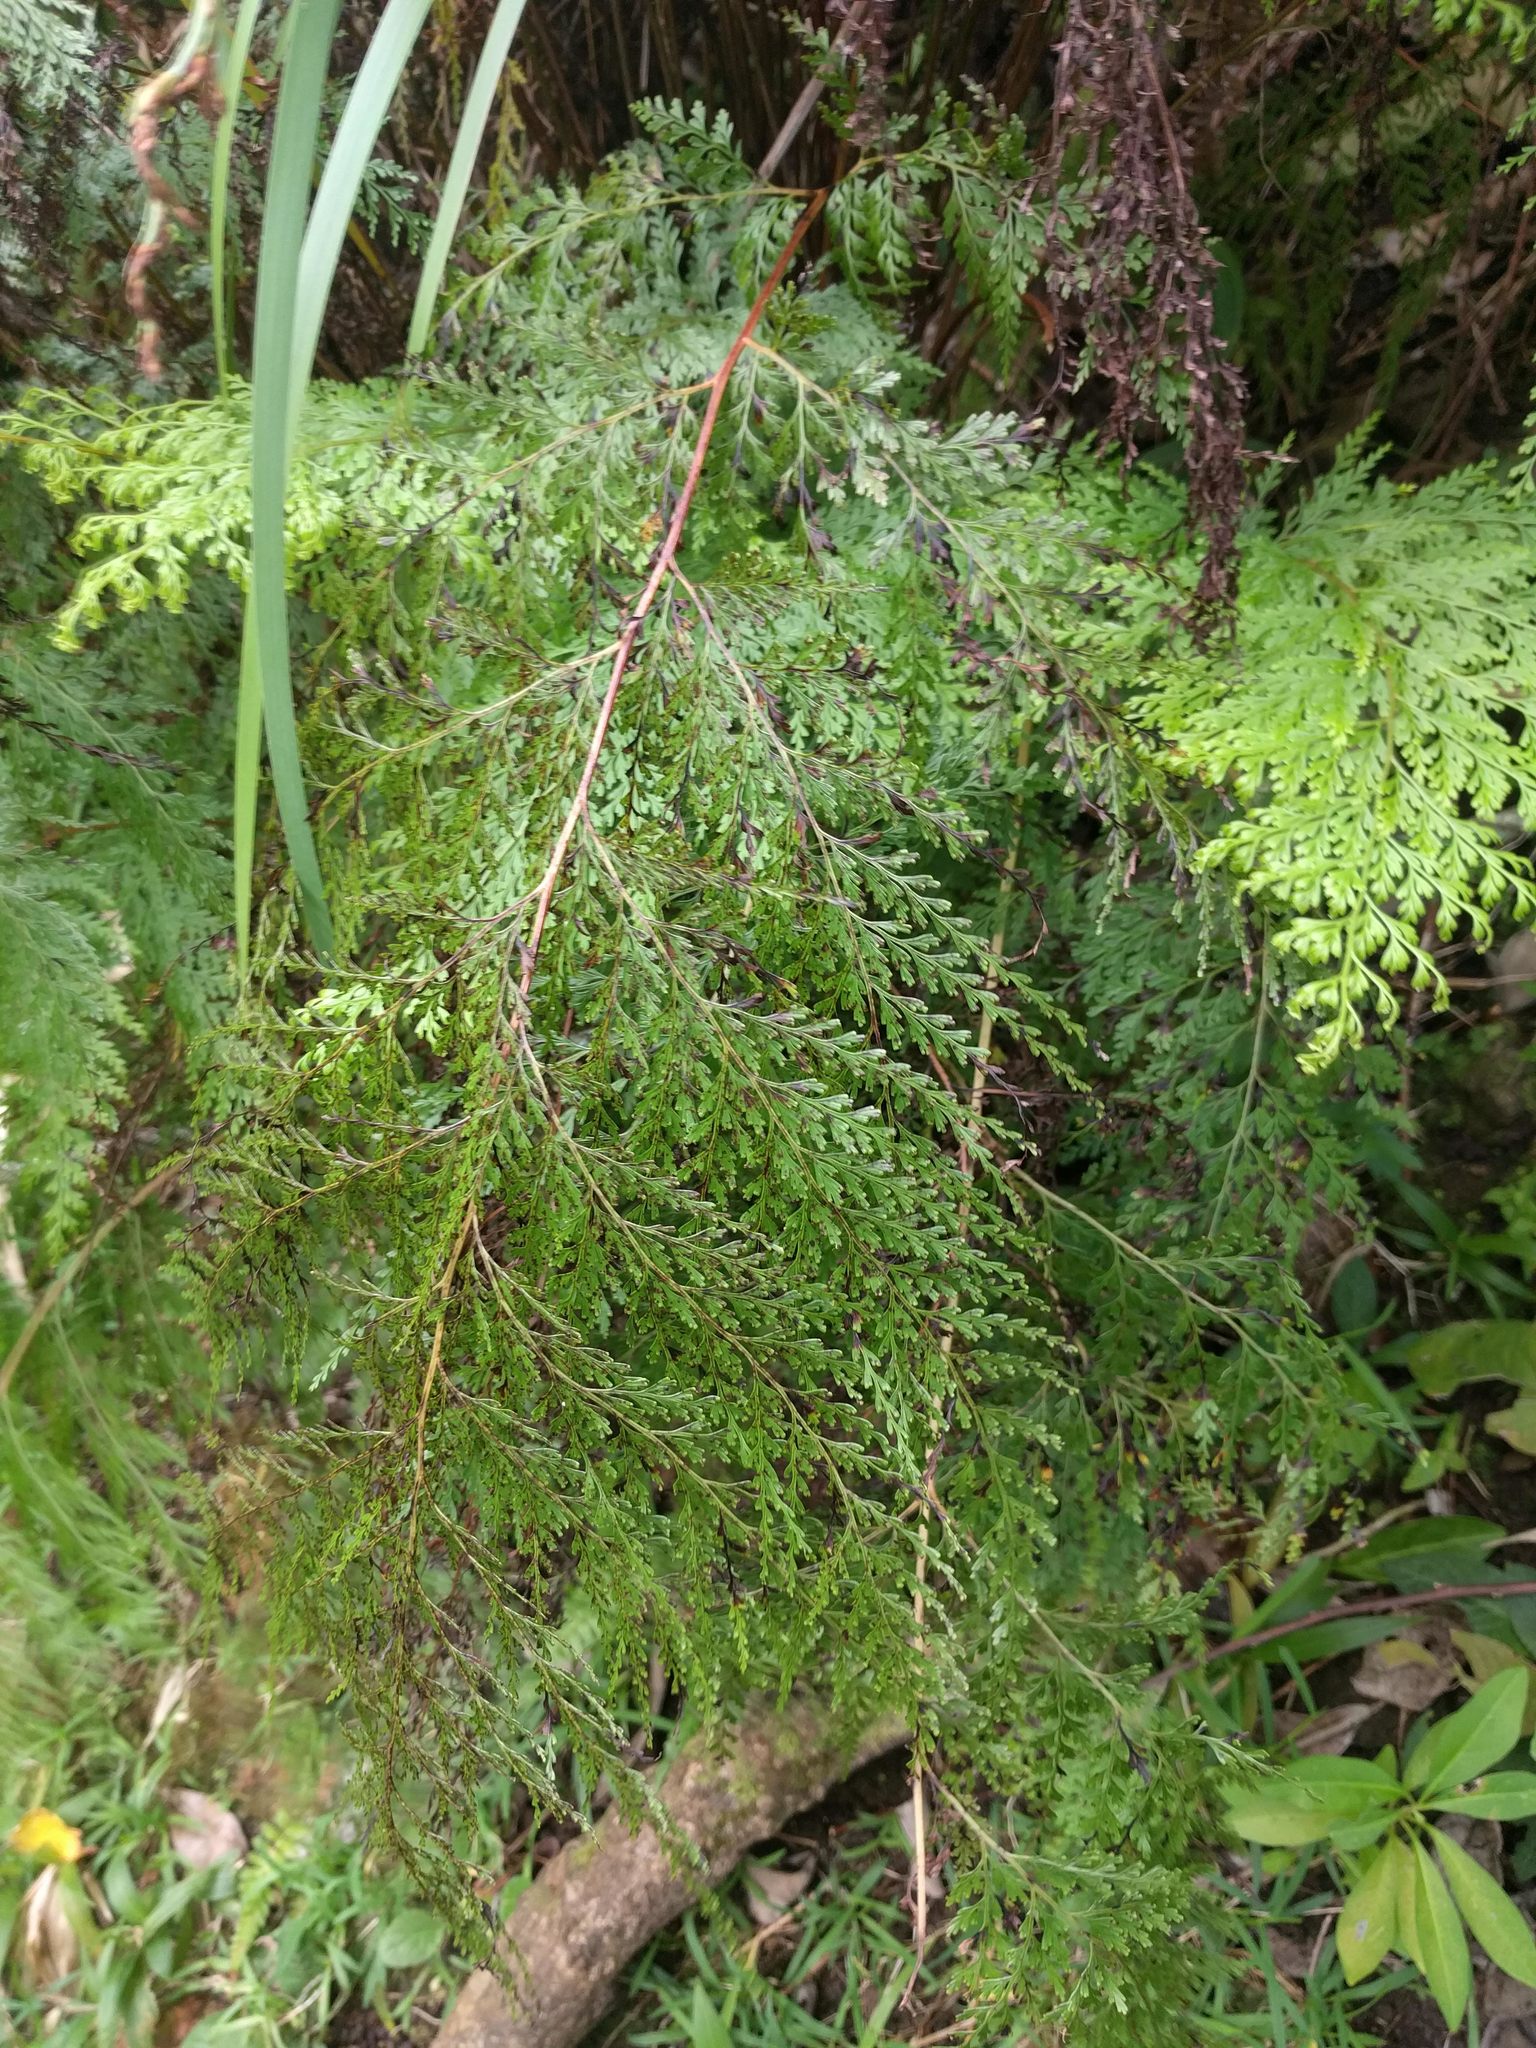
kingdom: Plantae
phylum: Tracheophyta
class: Polypodiopsida
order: Polypodiales
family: Lindsaeaceae
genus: Odontosoria
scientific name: Odontosoria chinensis
